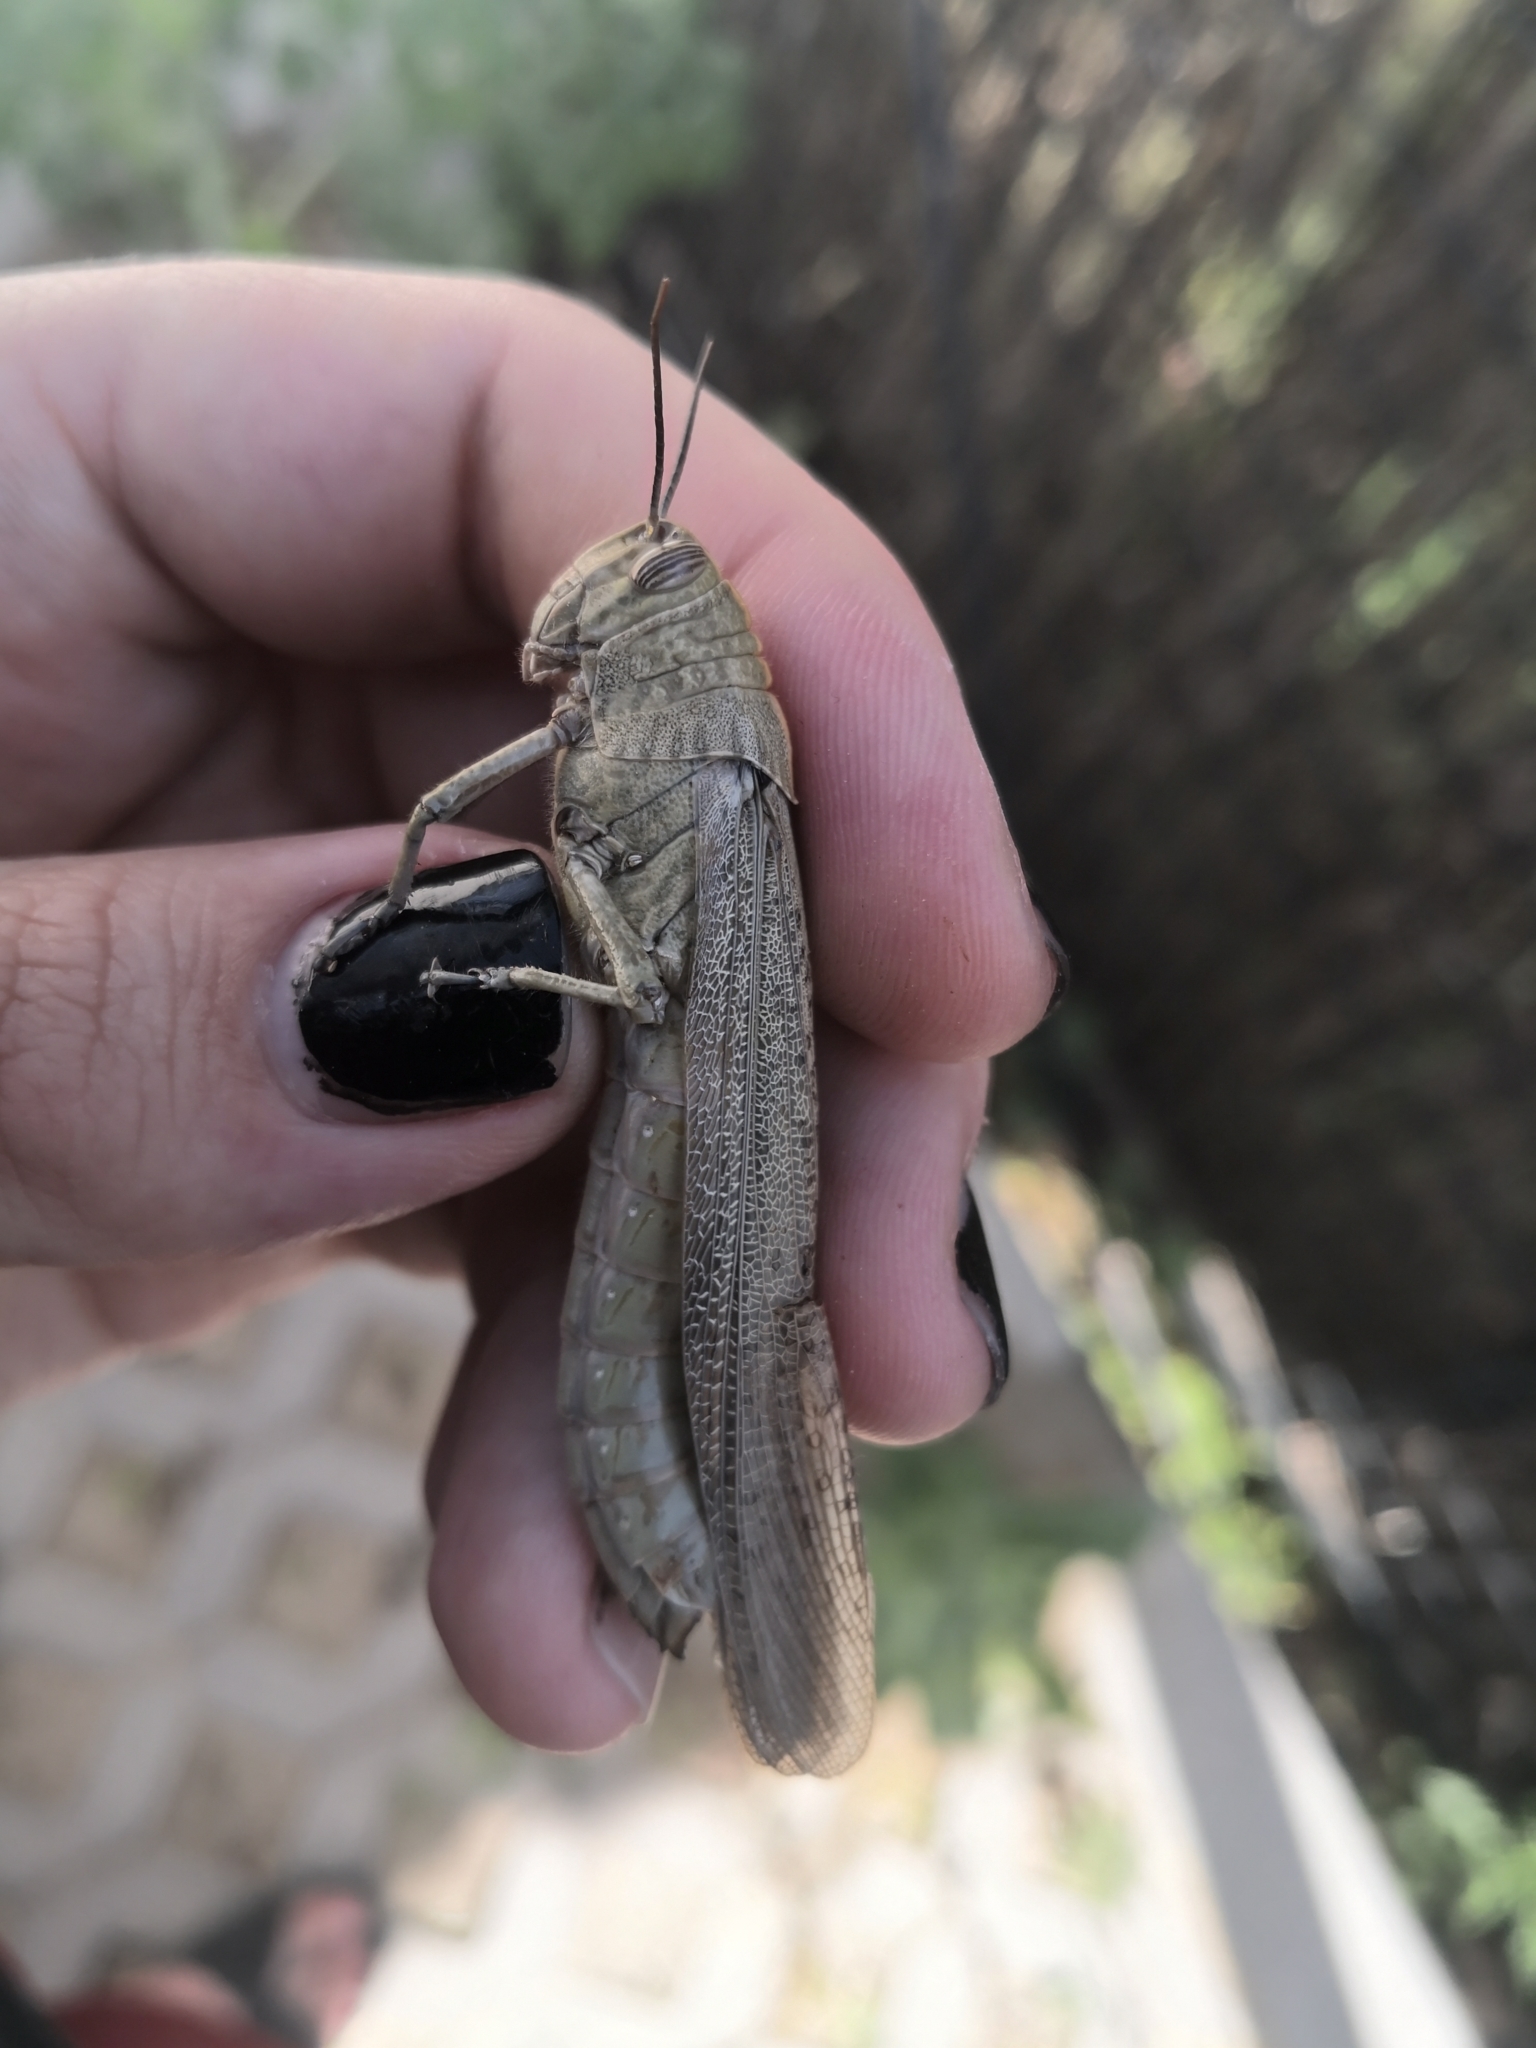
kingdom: Animalia
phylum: Arthropoda
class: Insecta
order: Orthoptera
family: Acrididae
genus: Anacridium
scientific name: Anacridium aegyptium
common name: Egyptian grasshopper
